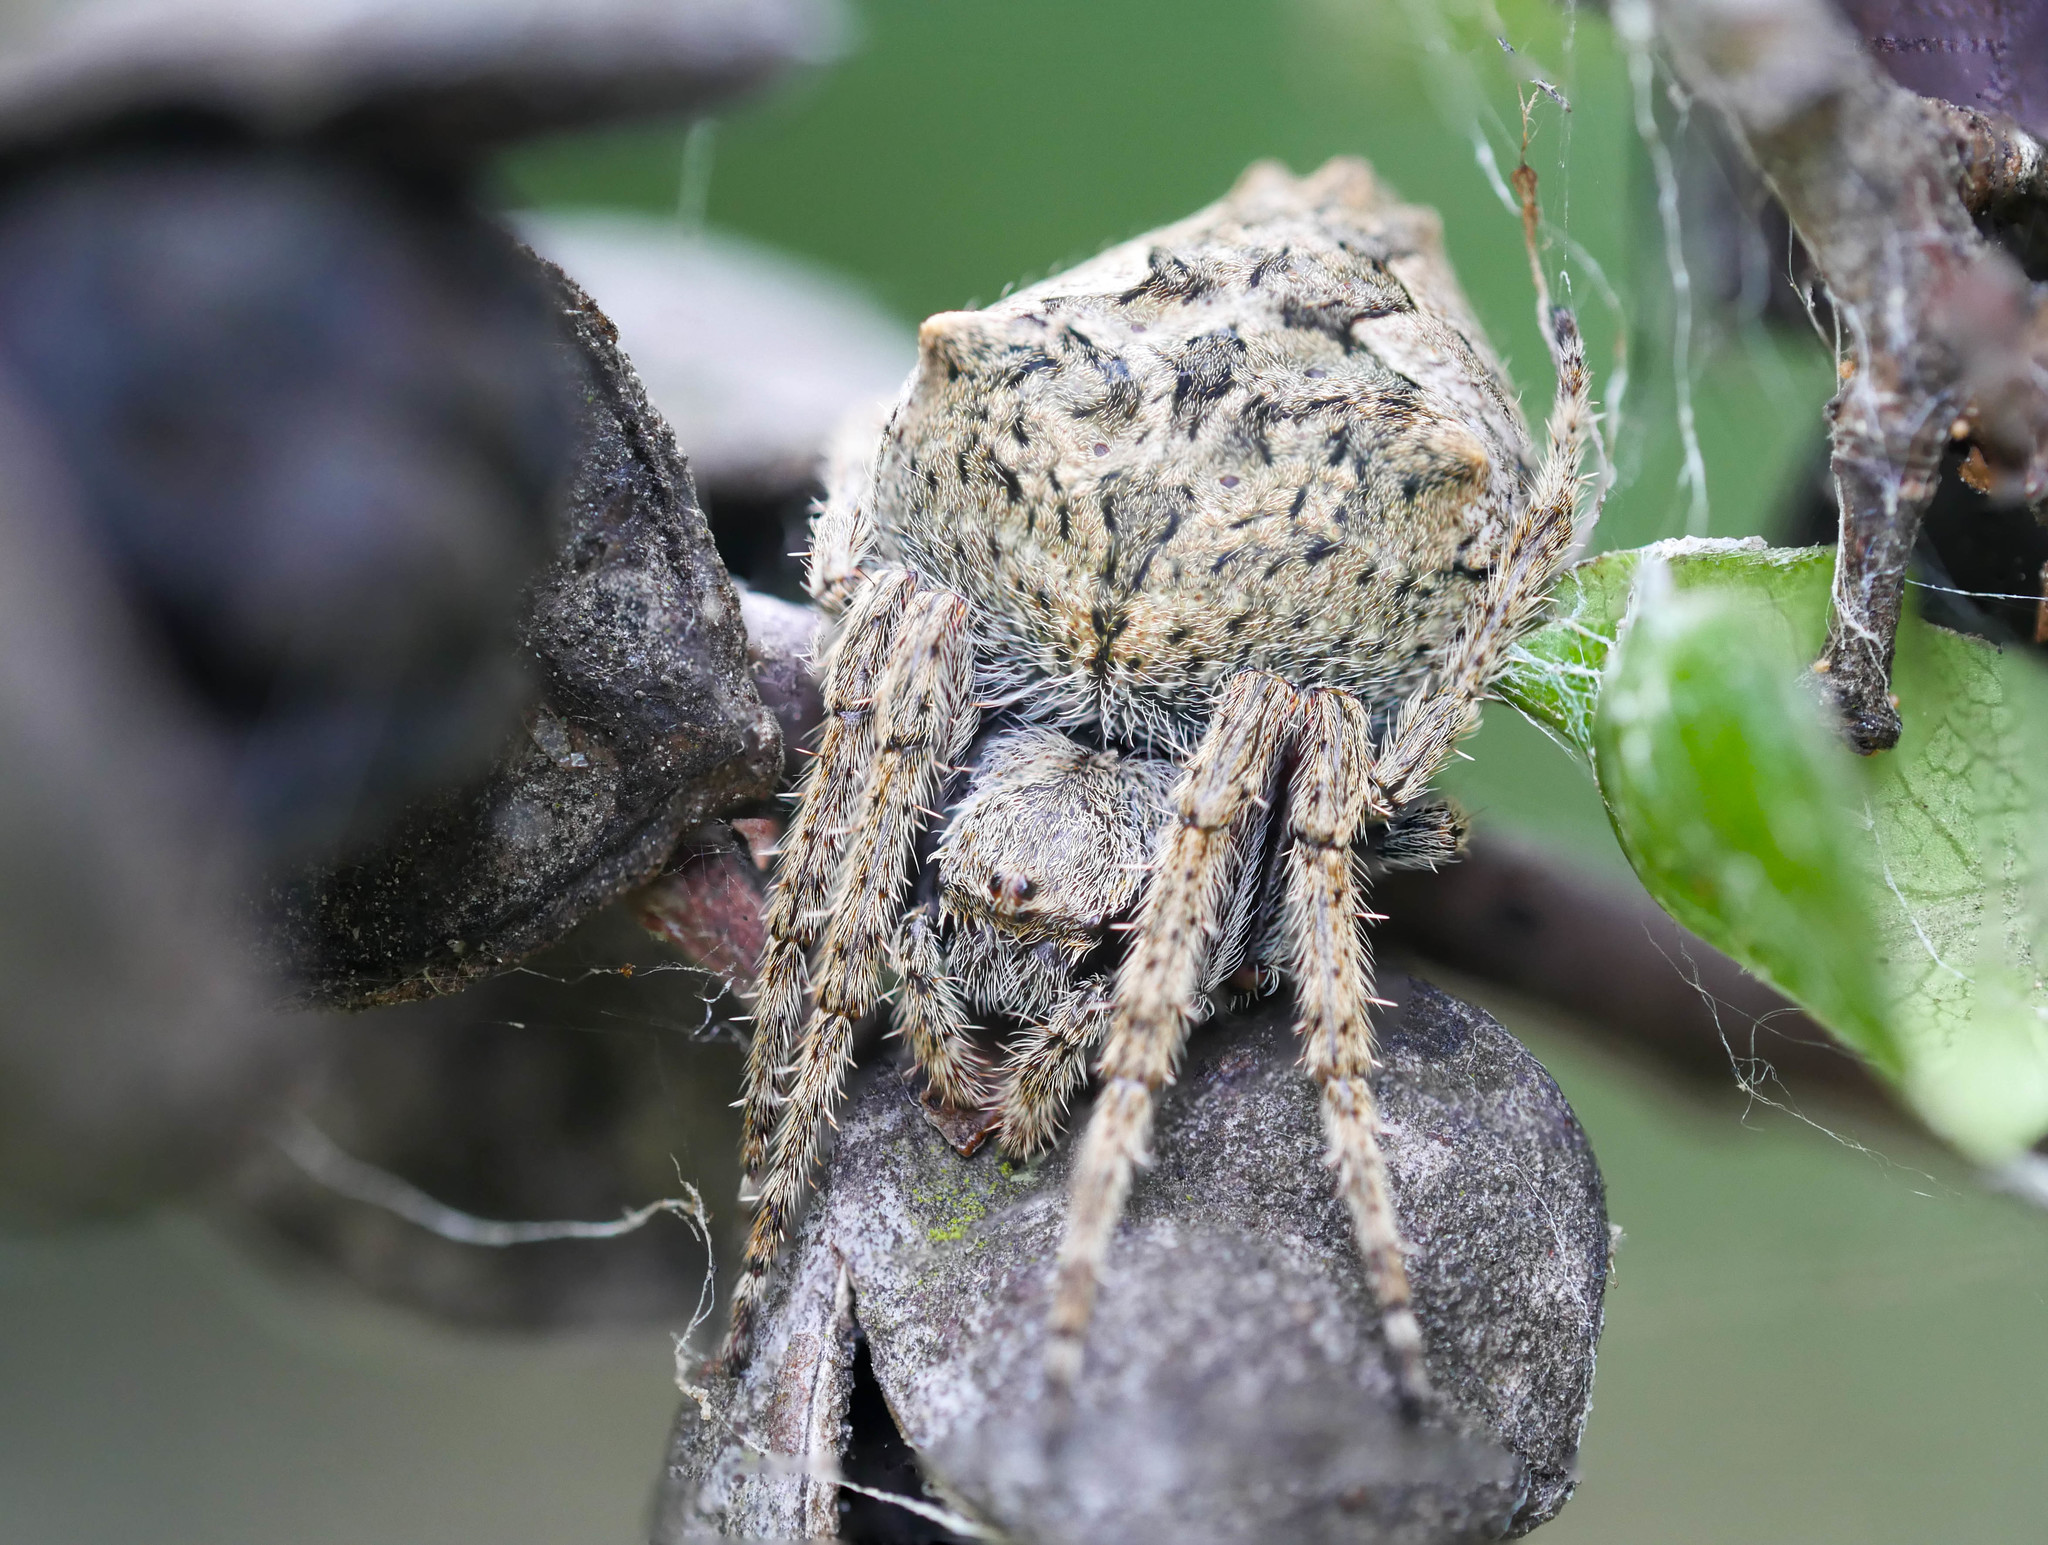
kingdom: Animalia
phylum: Arthropoda
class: Arachnida
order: Araneae
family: Araneidae
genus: Eriophora
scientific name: Eriophora pustulosa
